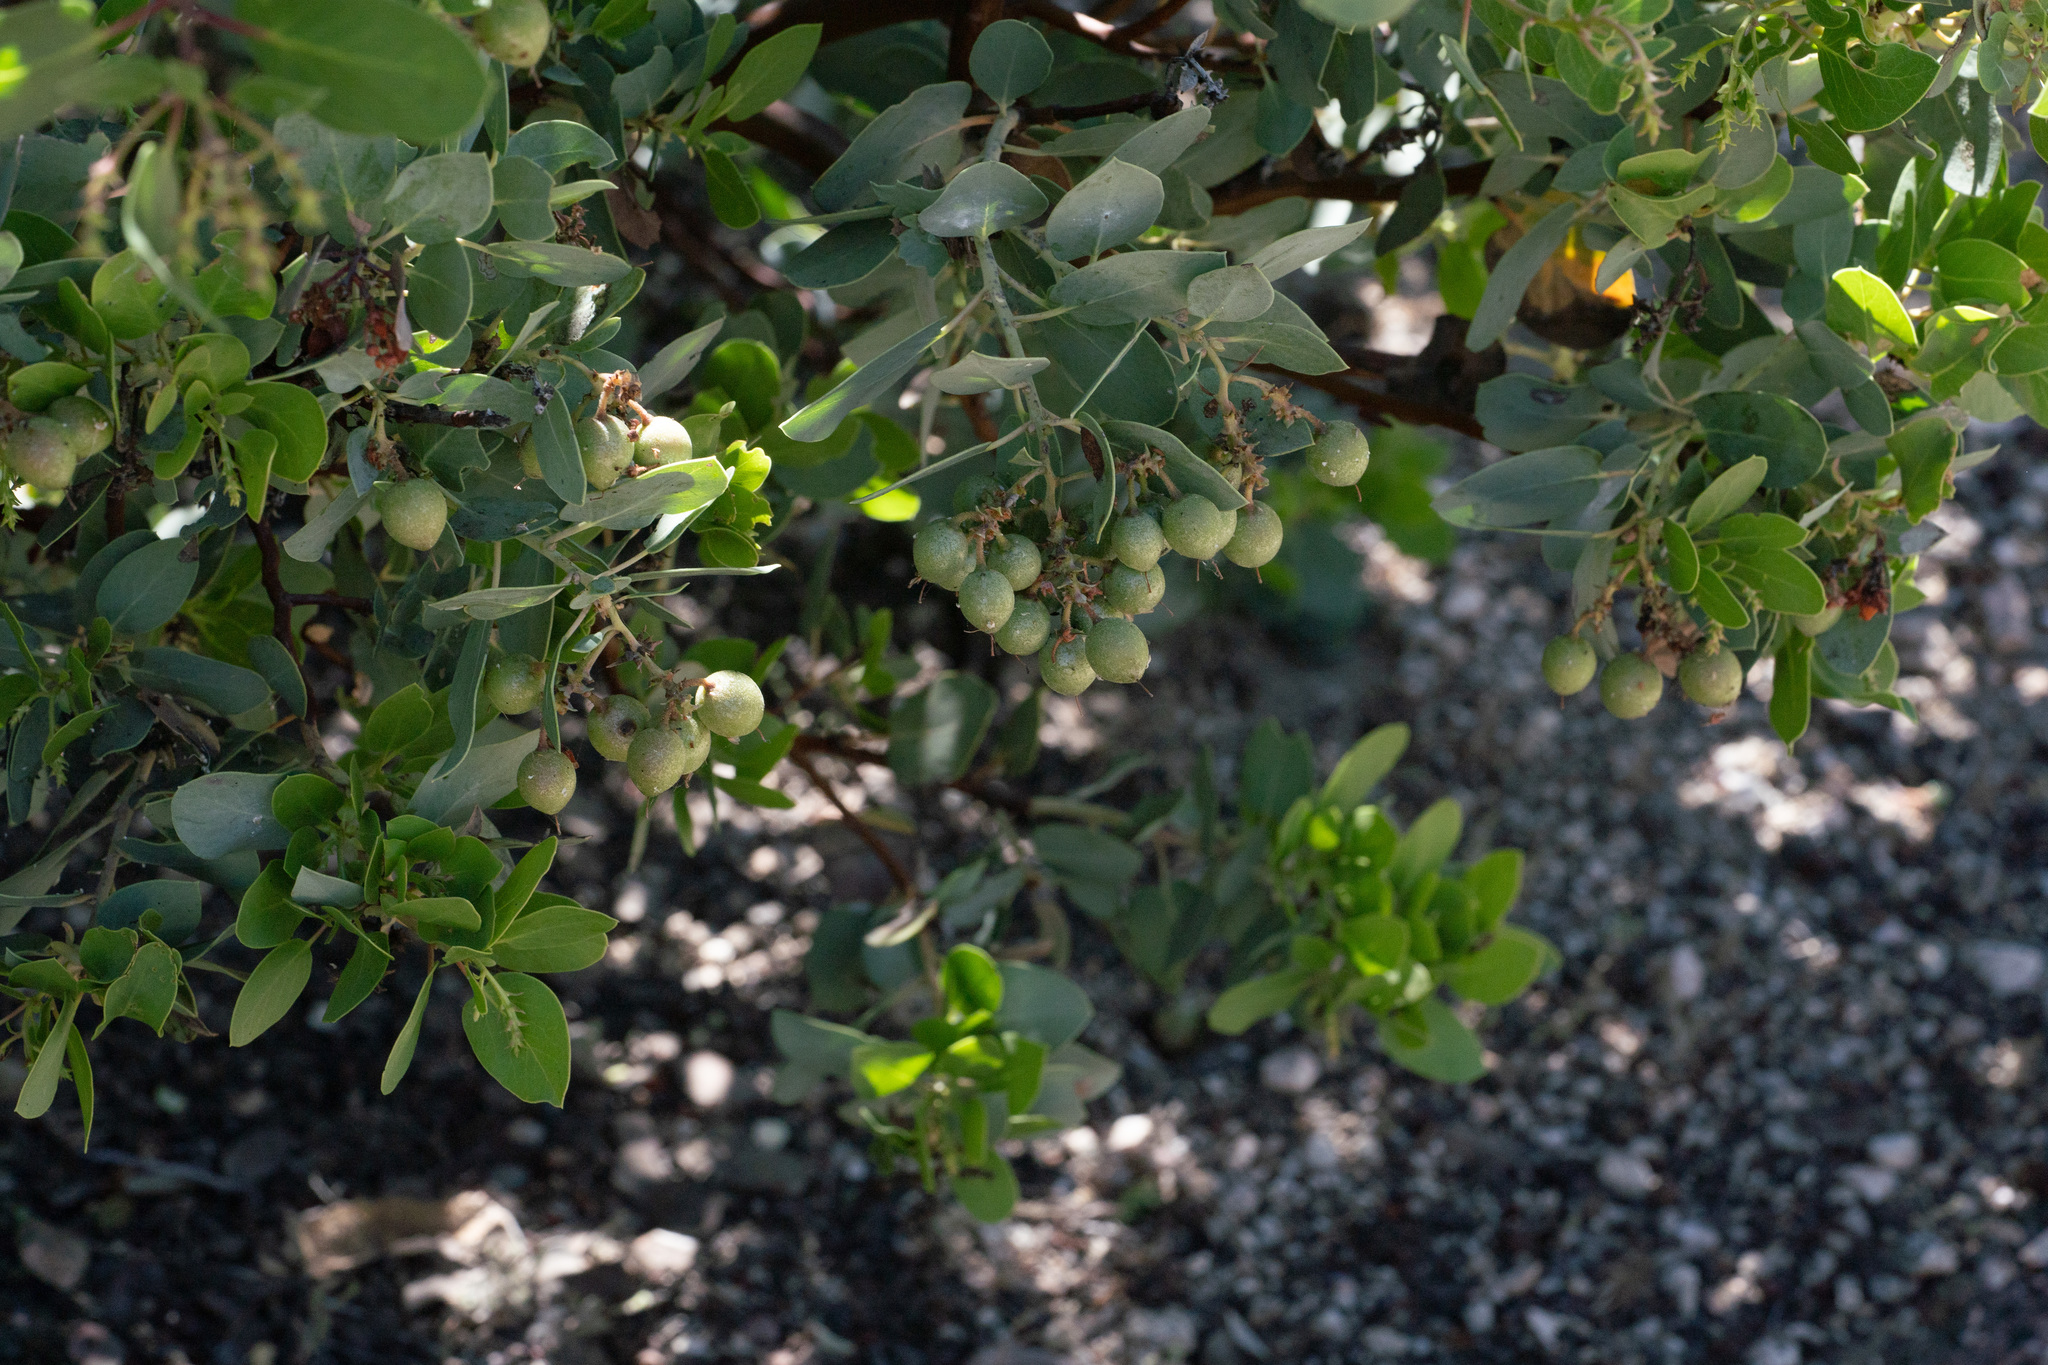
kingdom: Plantae
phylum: Tracheophyta
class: Magnoliopsida
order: Ericales
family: Ericaceae
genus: Arctostaphylos
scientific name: Arctostaphylos glauca
